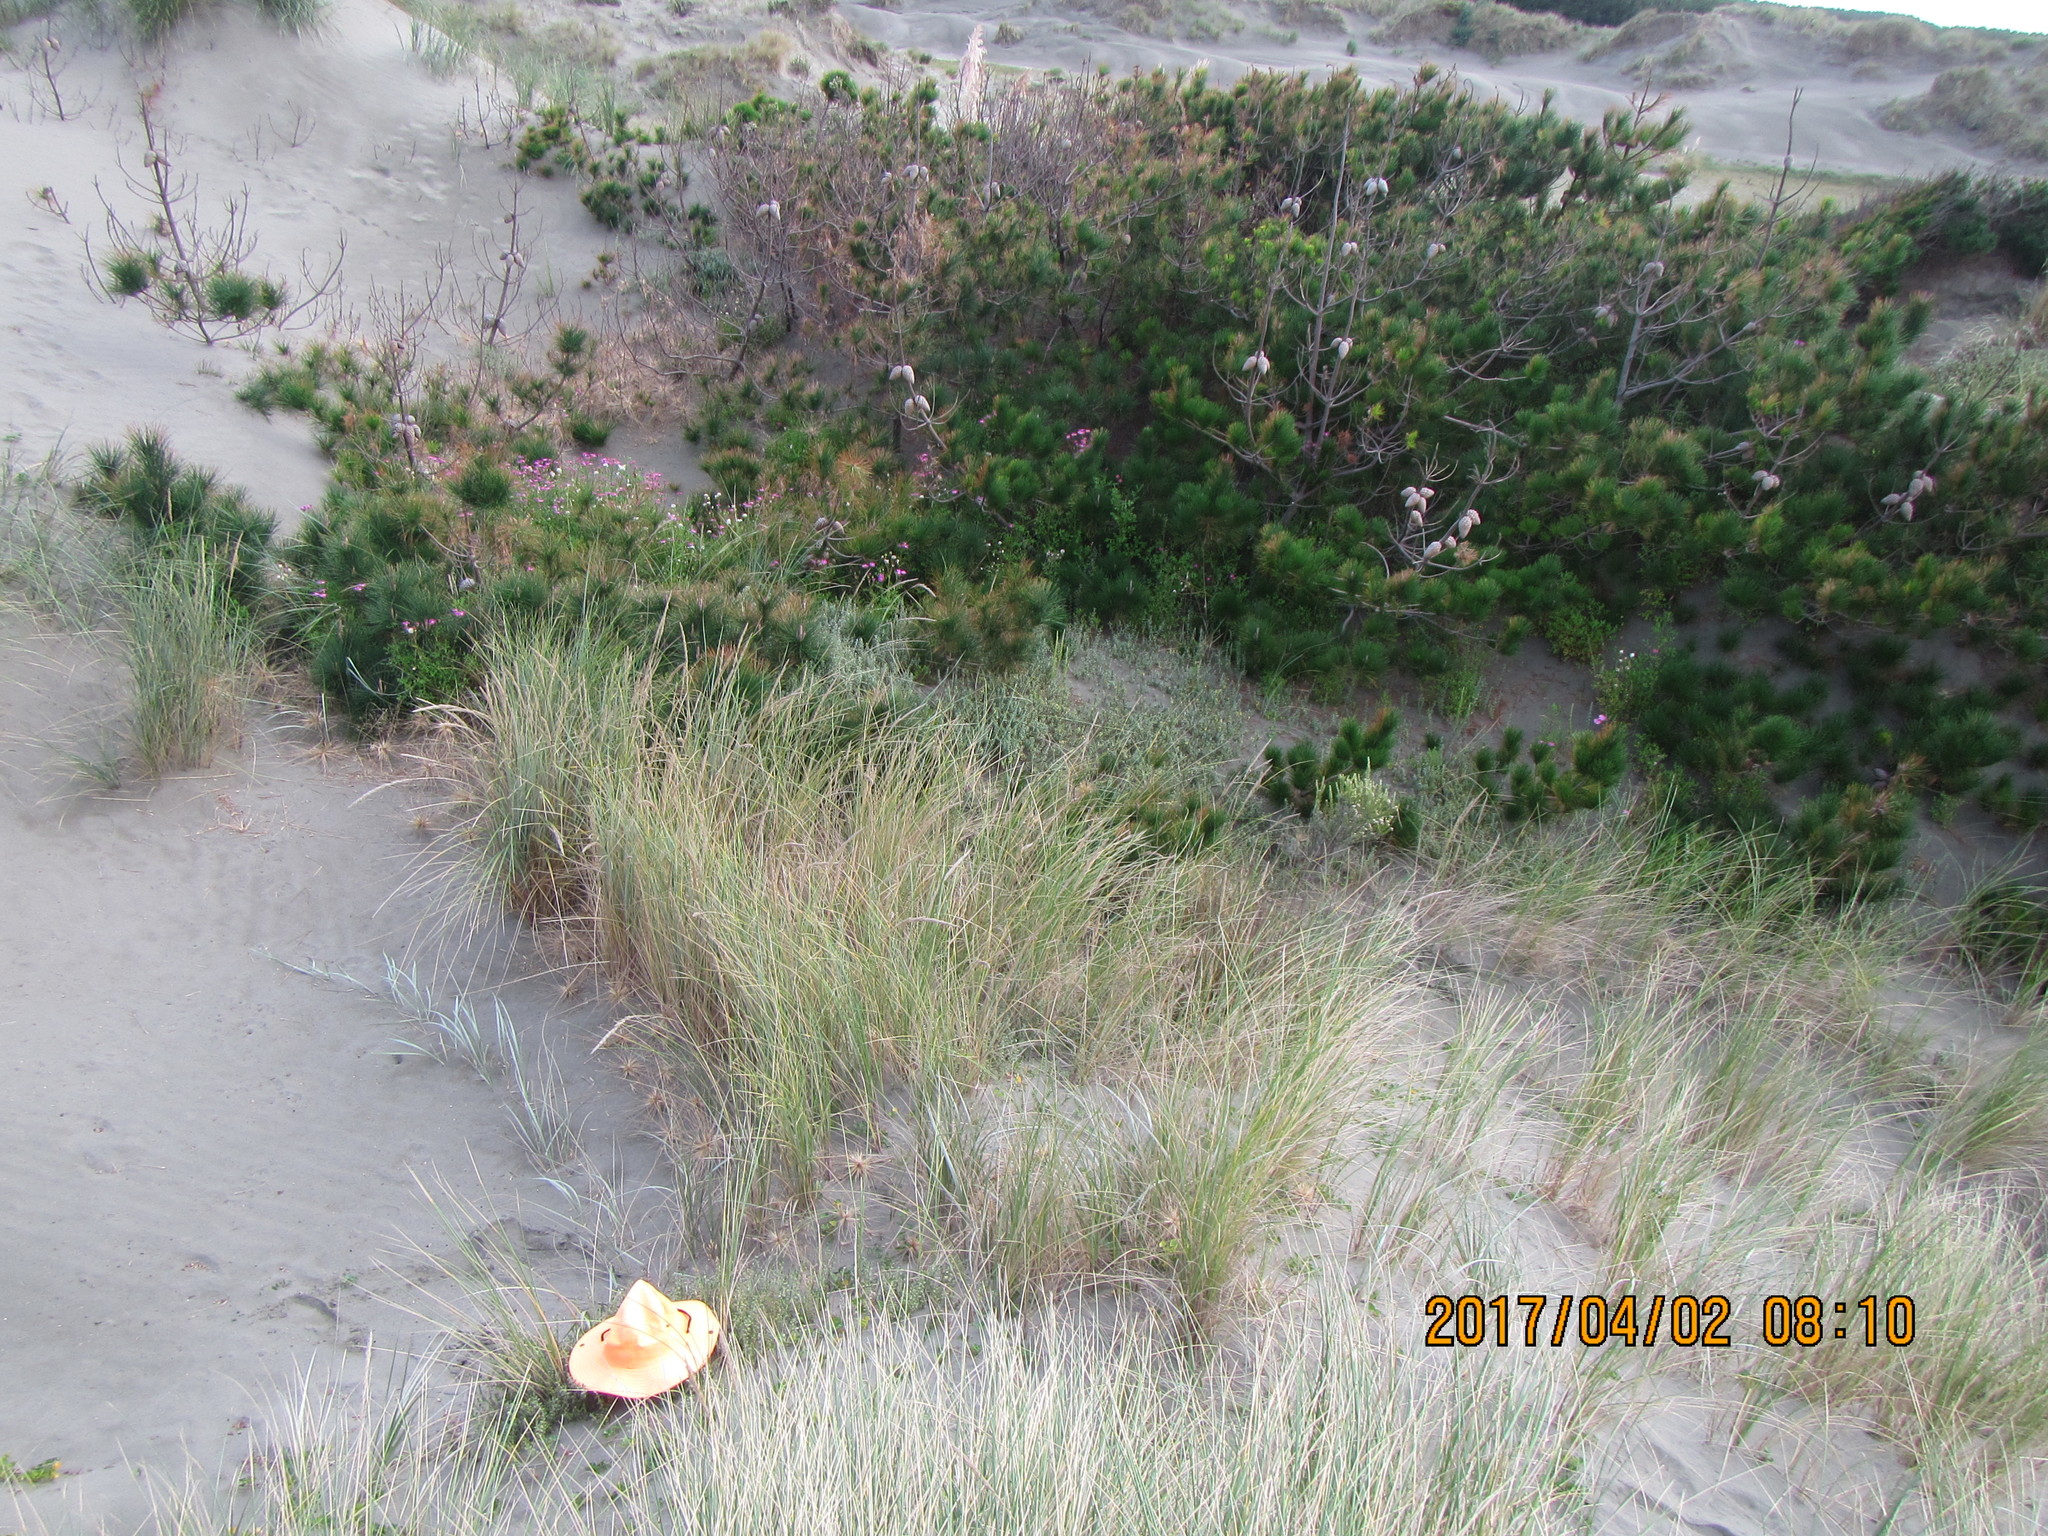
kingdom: Plantae
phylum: Tracheophyta
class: Magnoliopsida
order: Malvales
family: Thymelaeaceae
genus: Pimelea
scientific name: Pimelea villosa
